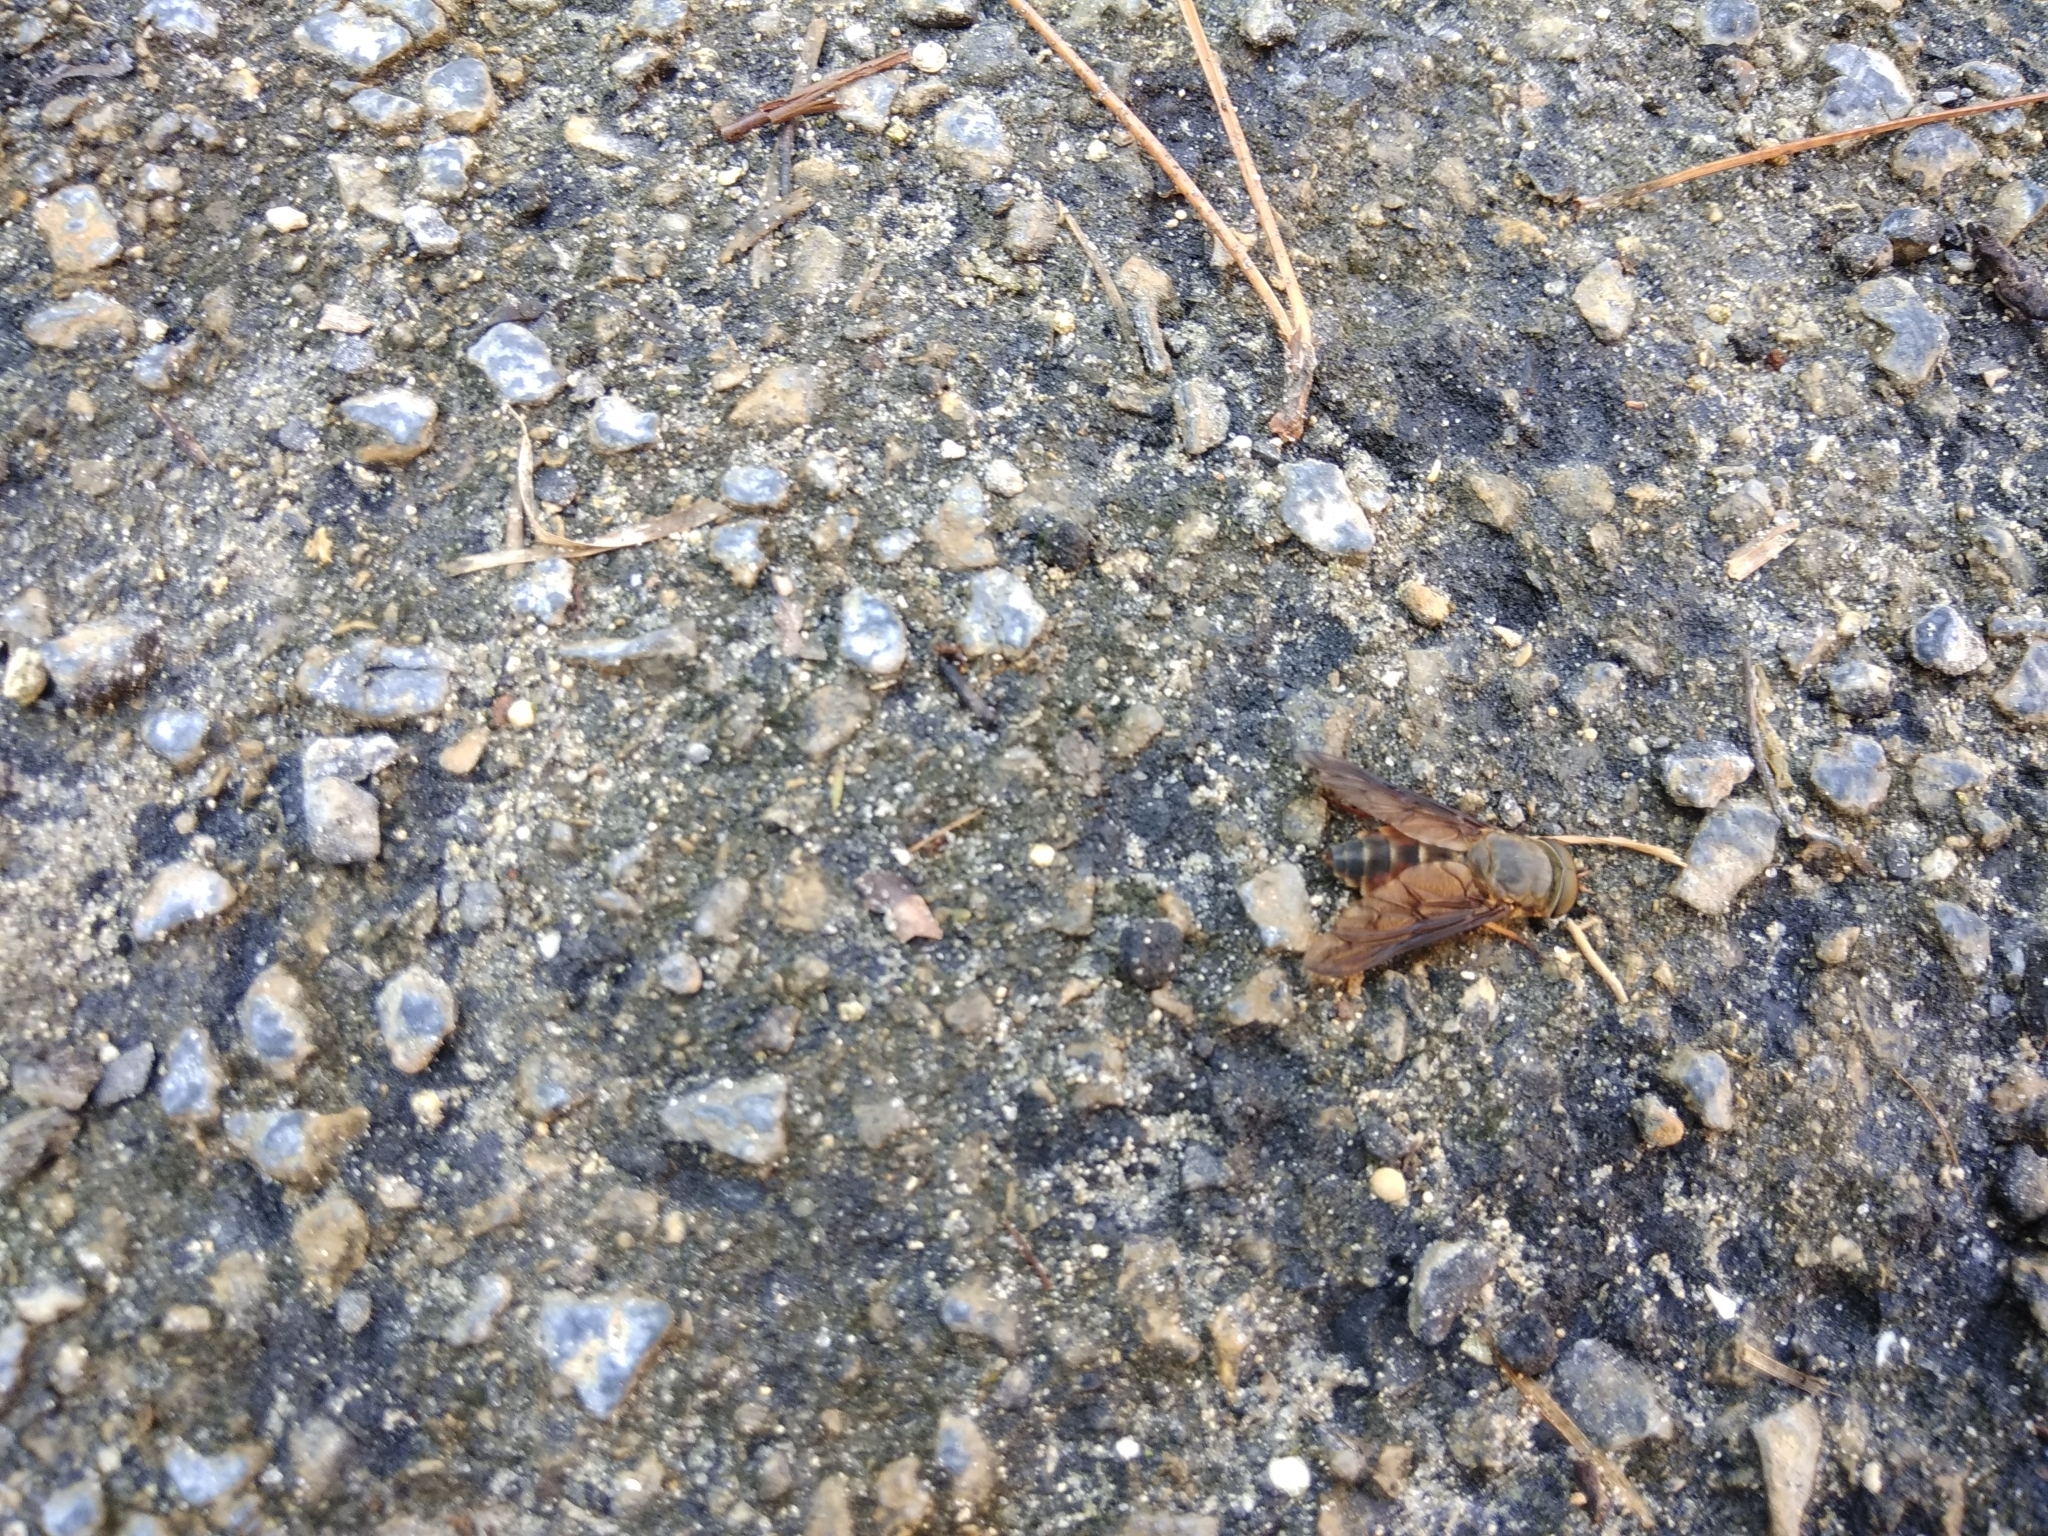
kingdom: Animalia
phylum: Arthropoda
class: Insecta
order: Diptera
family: Tabanidae
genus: Tabanus
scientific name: Tabanus fumipennis
